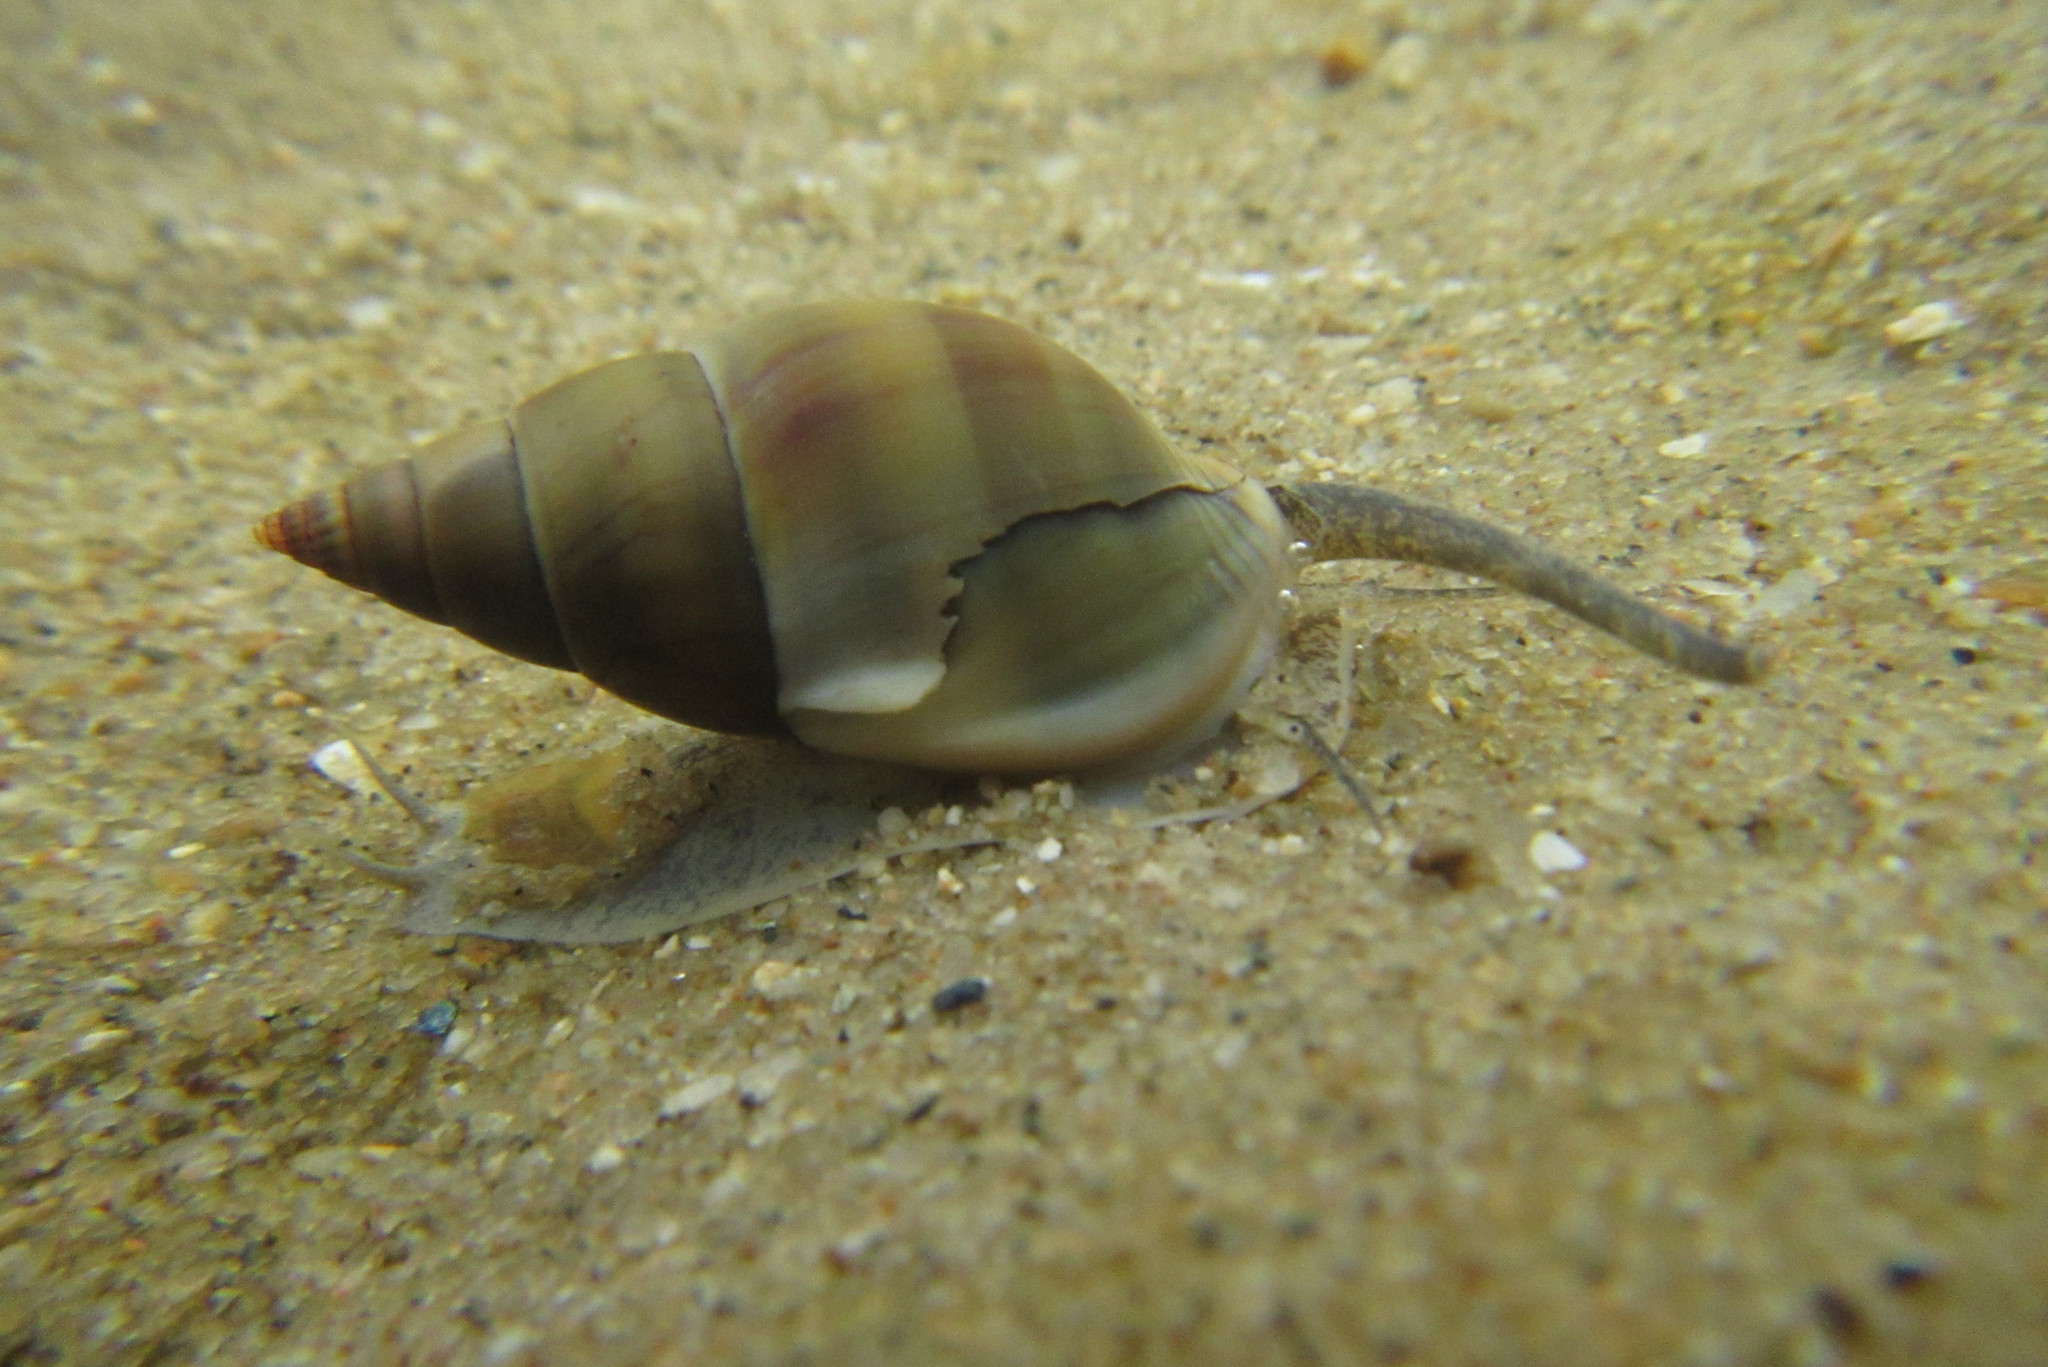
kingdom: Animalia
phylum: Mollusca
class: Gastropoda
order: Neogastropoda
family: Nassariidae
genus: Nassarius
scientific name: Nassarius dorsatus
